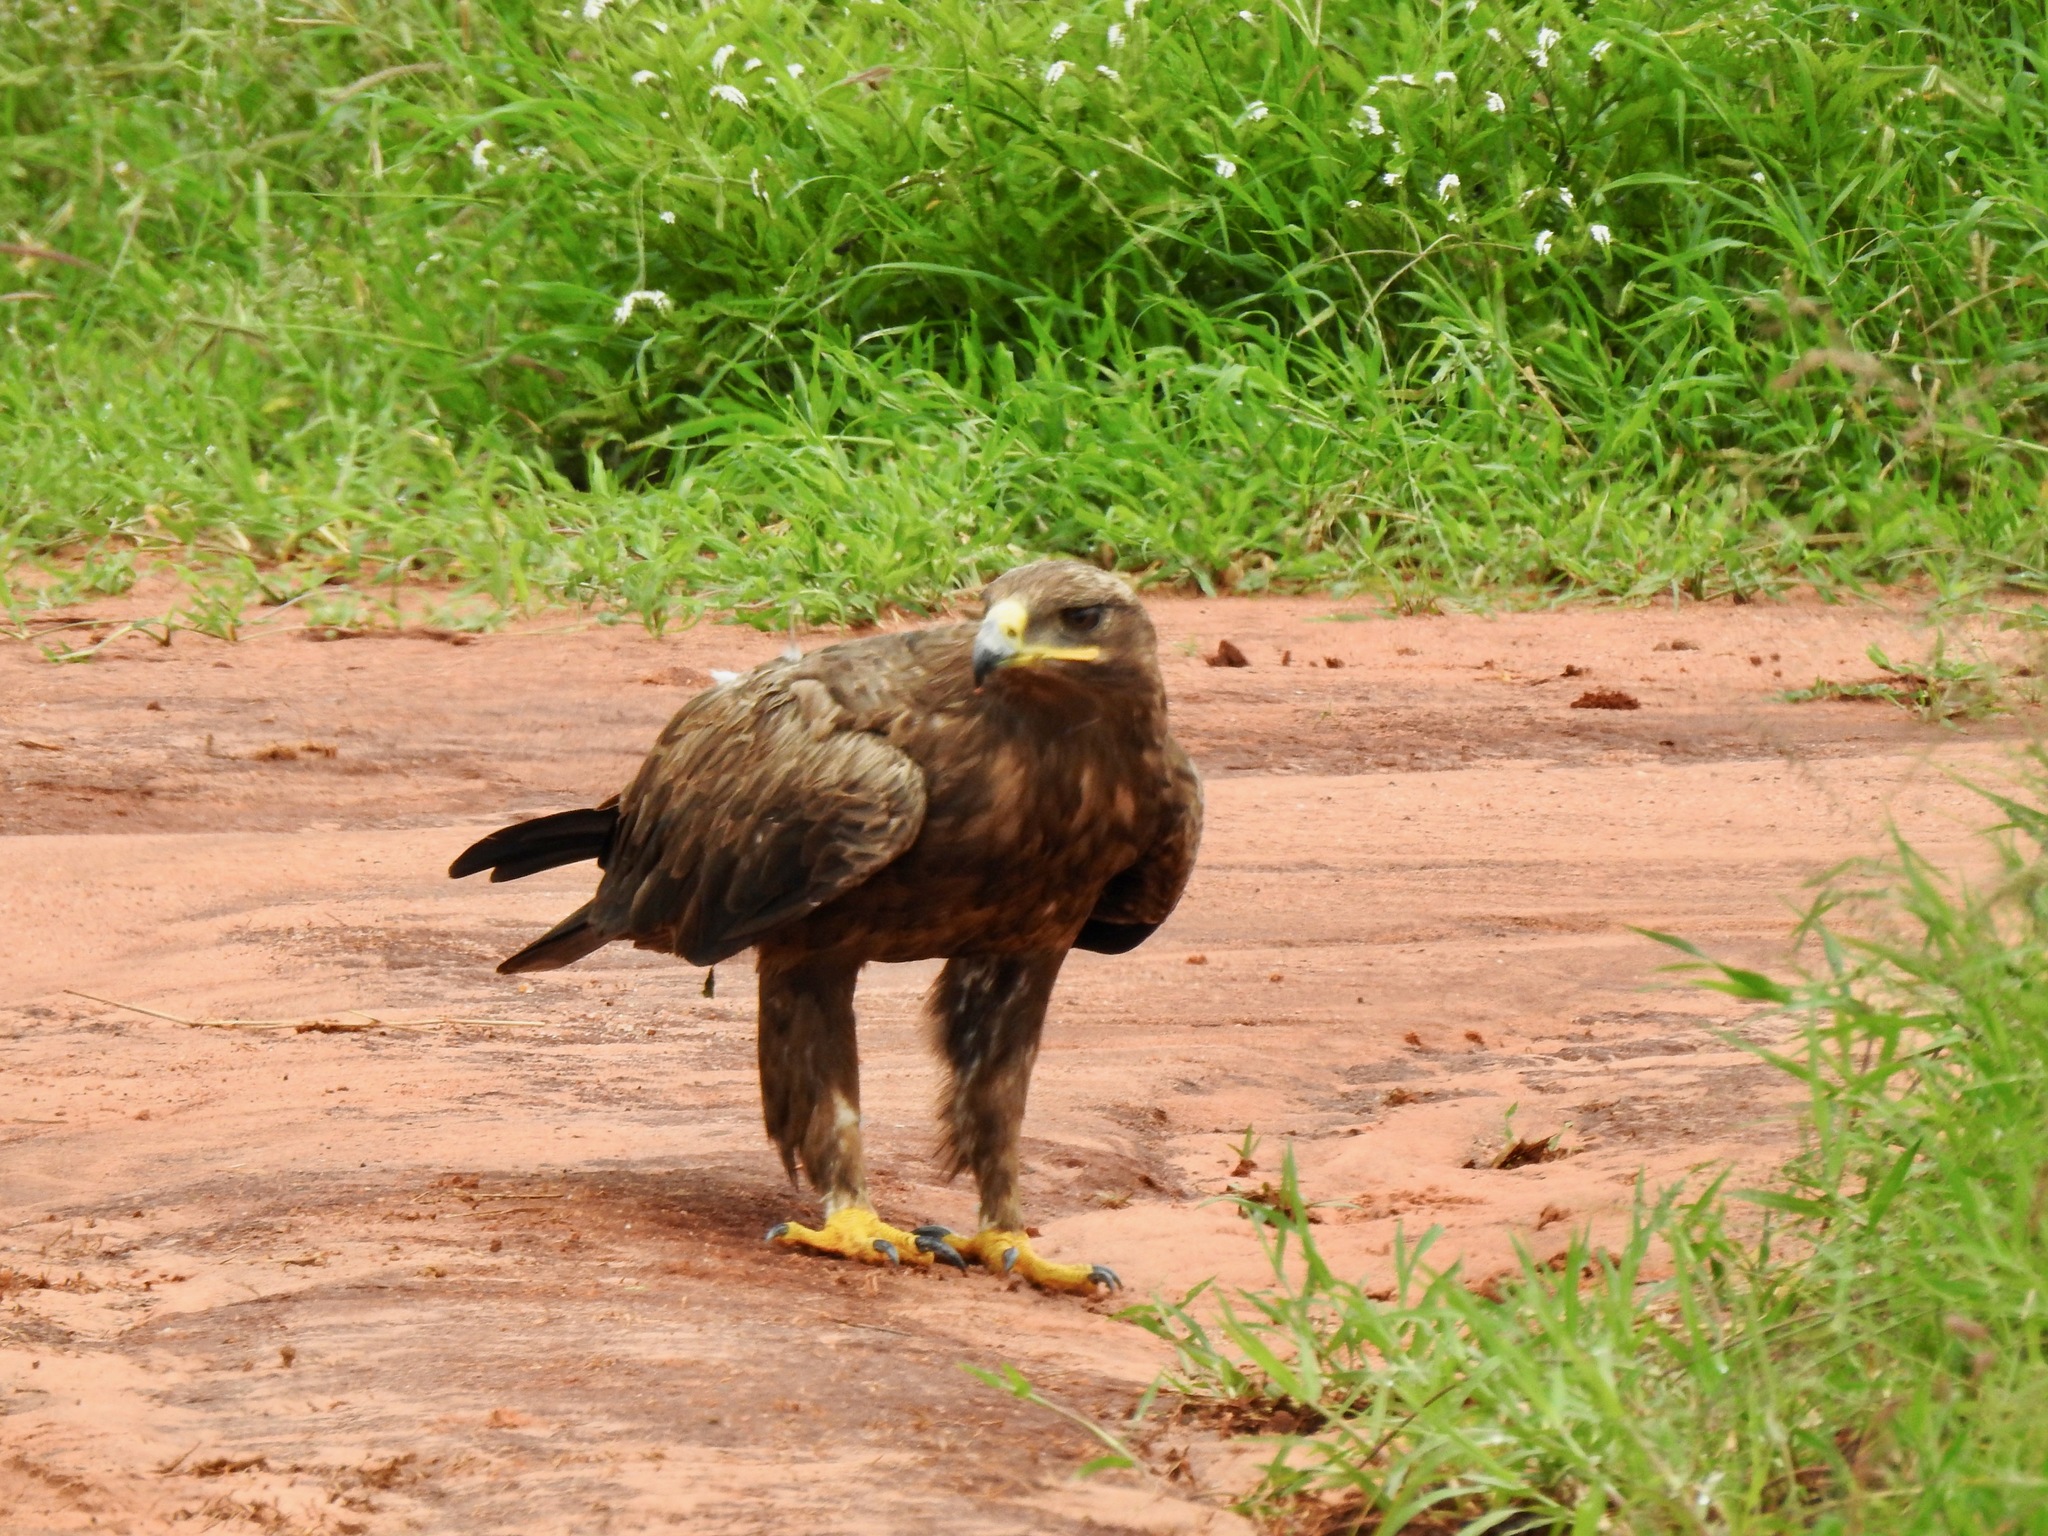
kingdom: Animalia
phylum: Chordata
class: Aves
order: Accipitriformes
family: Accipitridae
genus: Aquila
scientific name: Aquila rapax
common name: Tawny eagle
